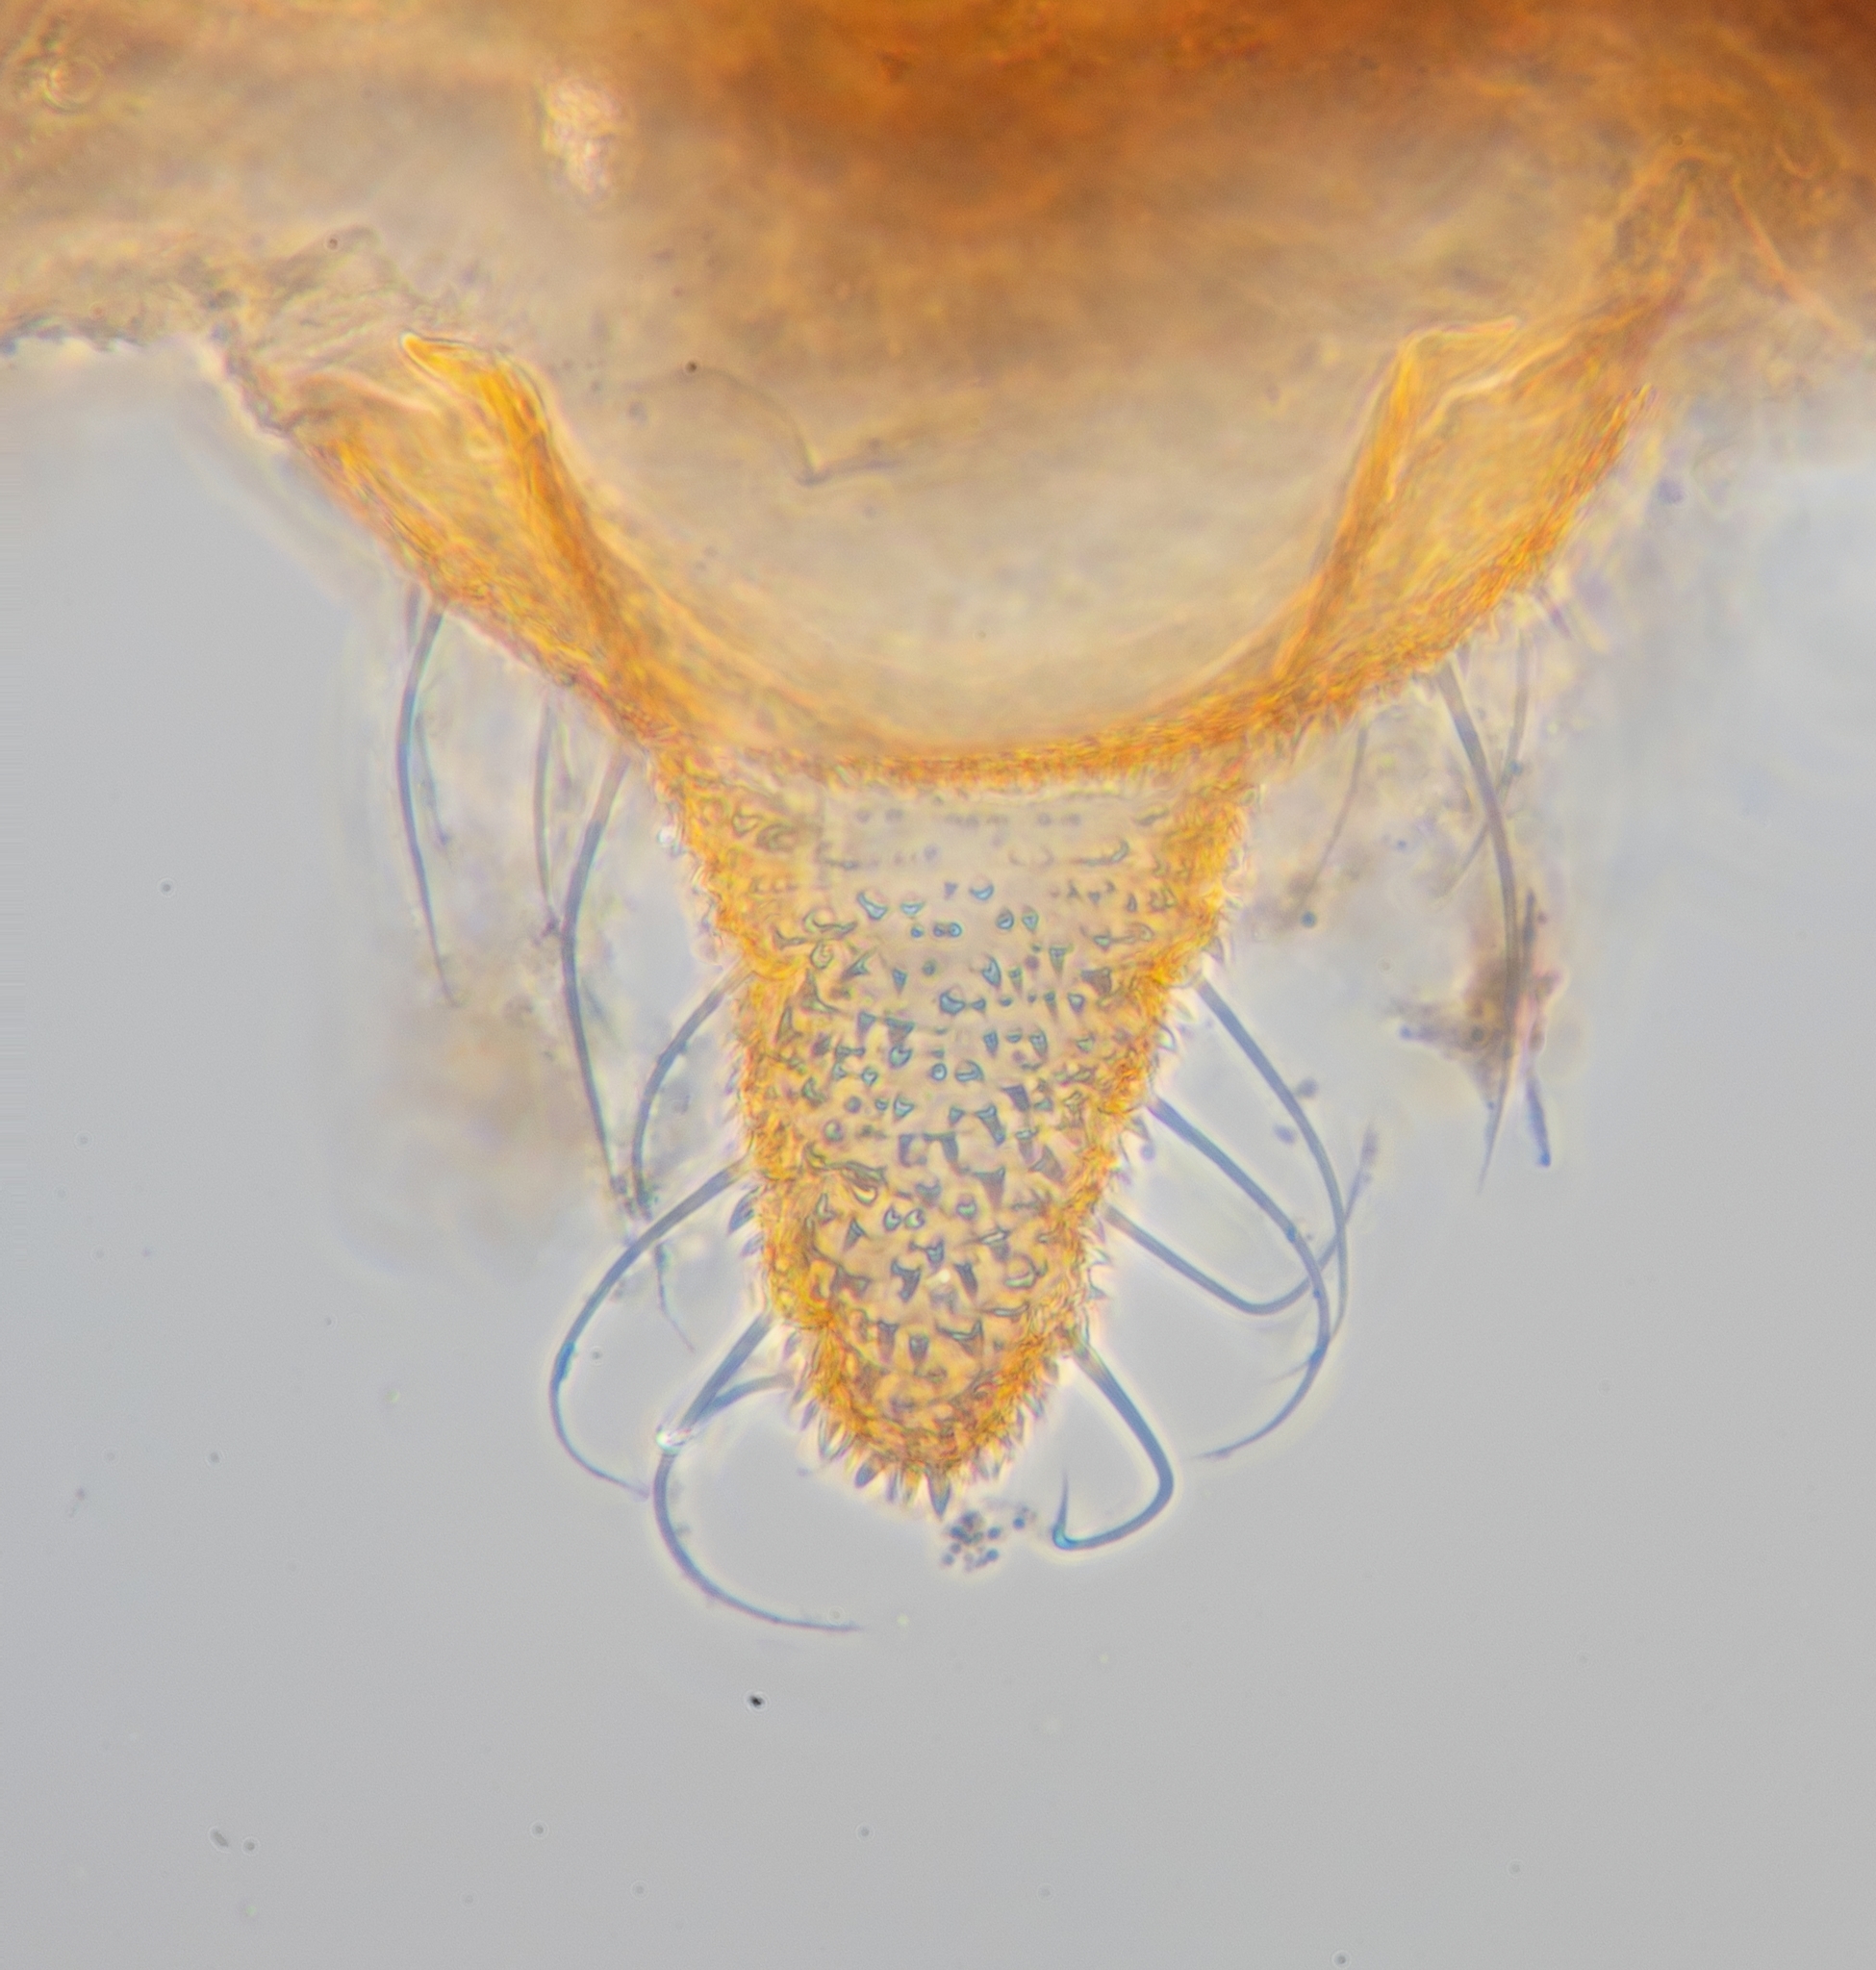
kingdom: Animalia
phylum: Arthropoda
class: Insecta
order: Hemiptera
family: Aphididae
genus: Aphis
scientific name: Aphis asclepiadis
